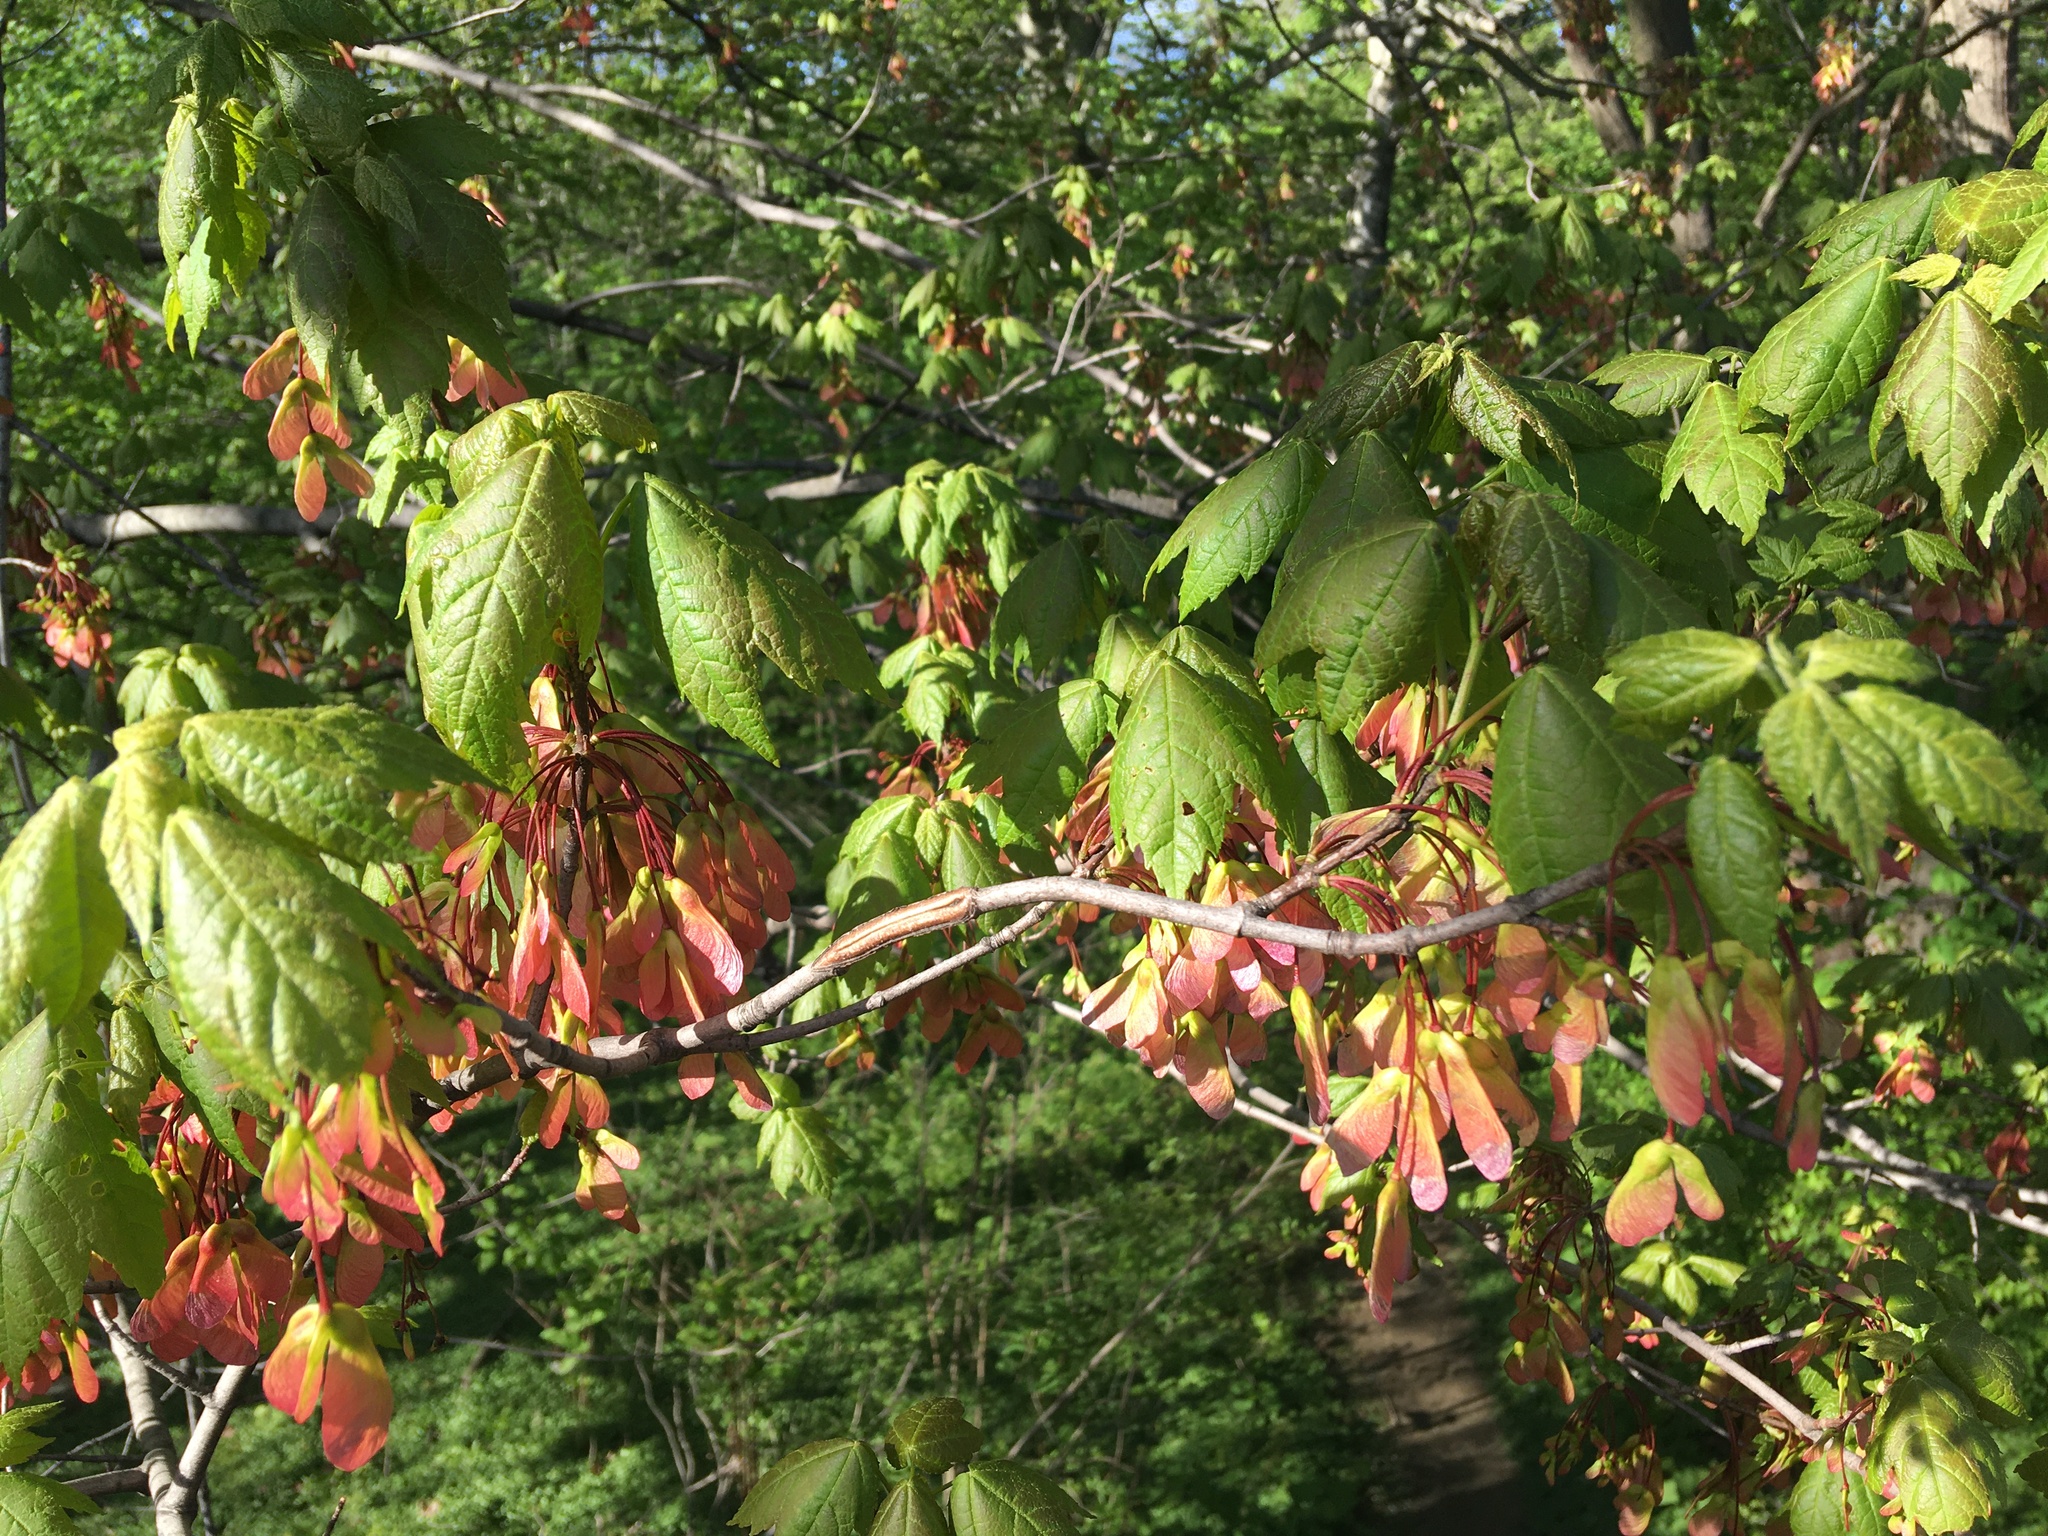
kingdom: Plantae
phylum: Tracheophyta
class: Magnoliopsida
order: Sapindales
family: Sapindaceae
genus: Acer
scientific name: Acer rubrum
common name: Red maple
